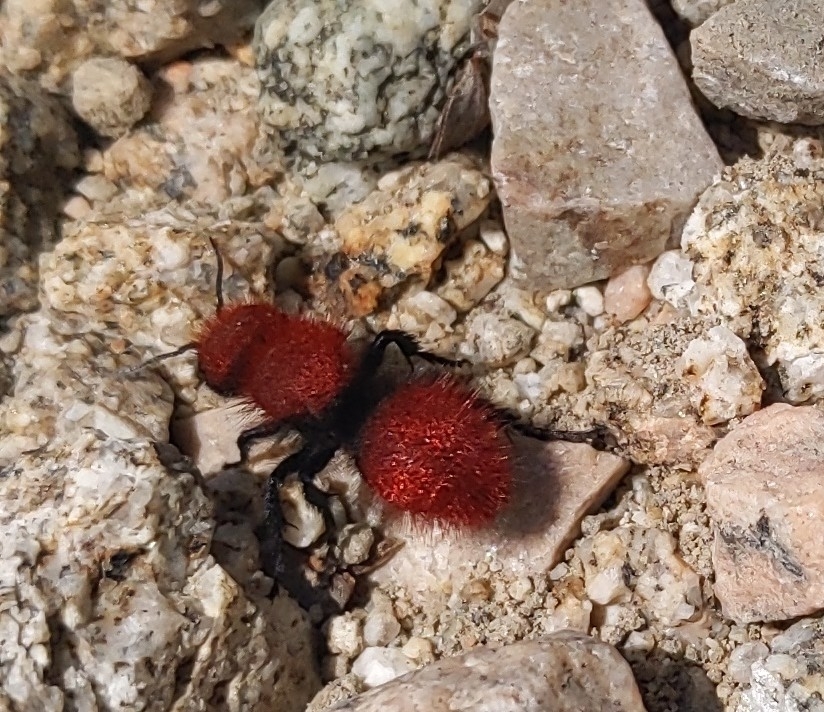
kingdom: Animalia
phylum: Arthropoda
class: Insecta
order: Hymenoptera
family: Mutillidae
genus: Dasymutilla
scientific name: Dasymutilla
